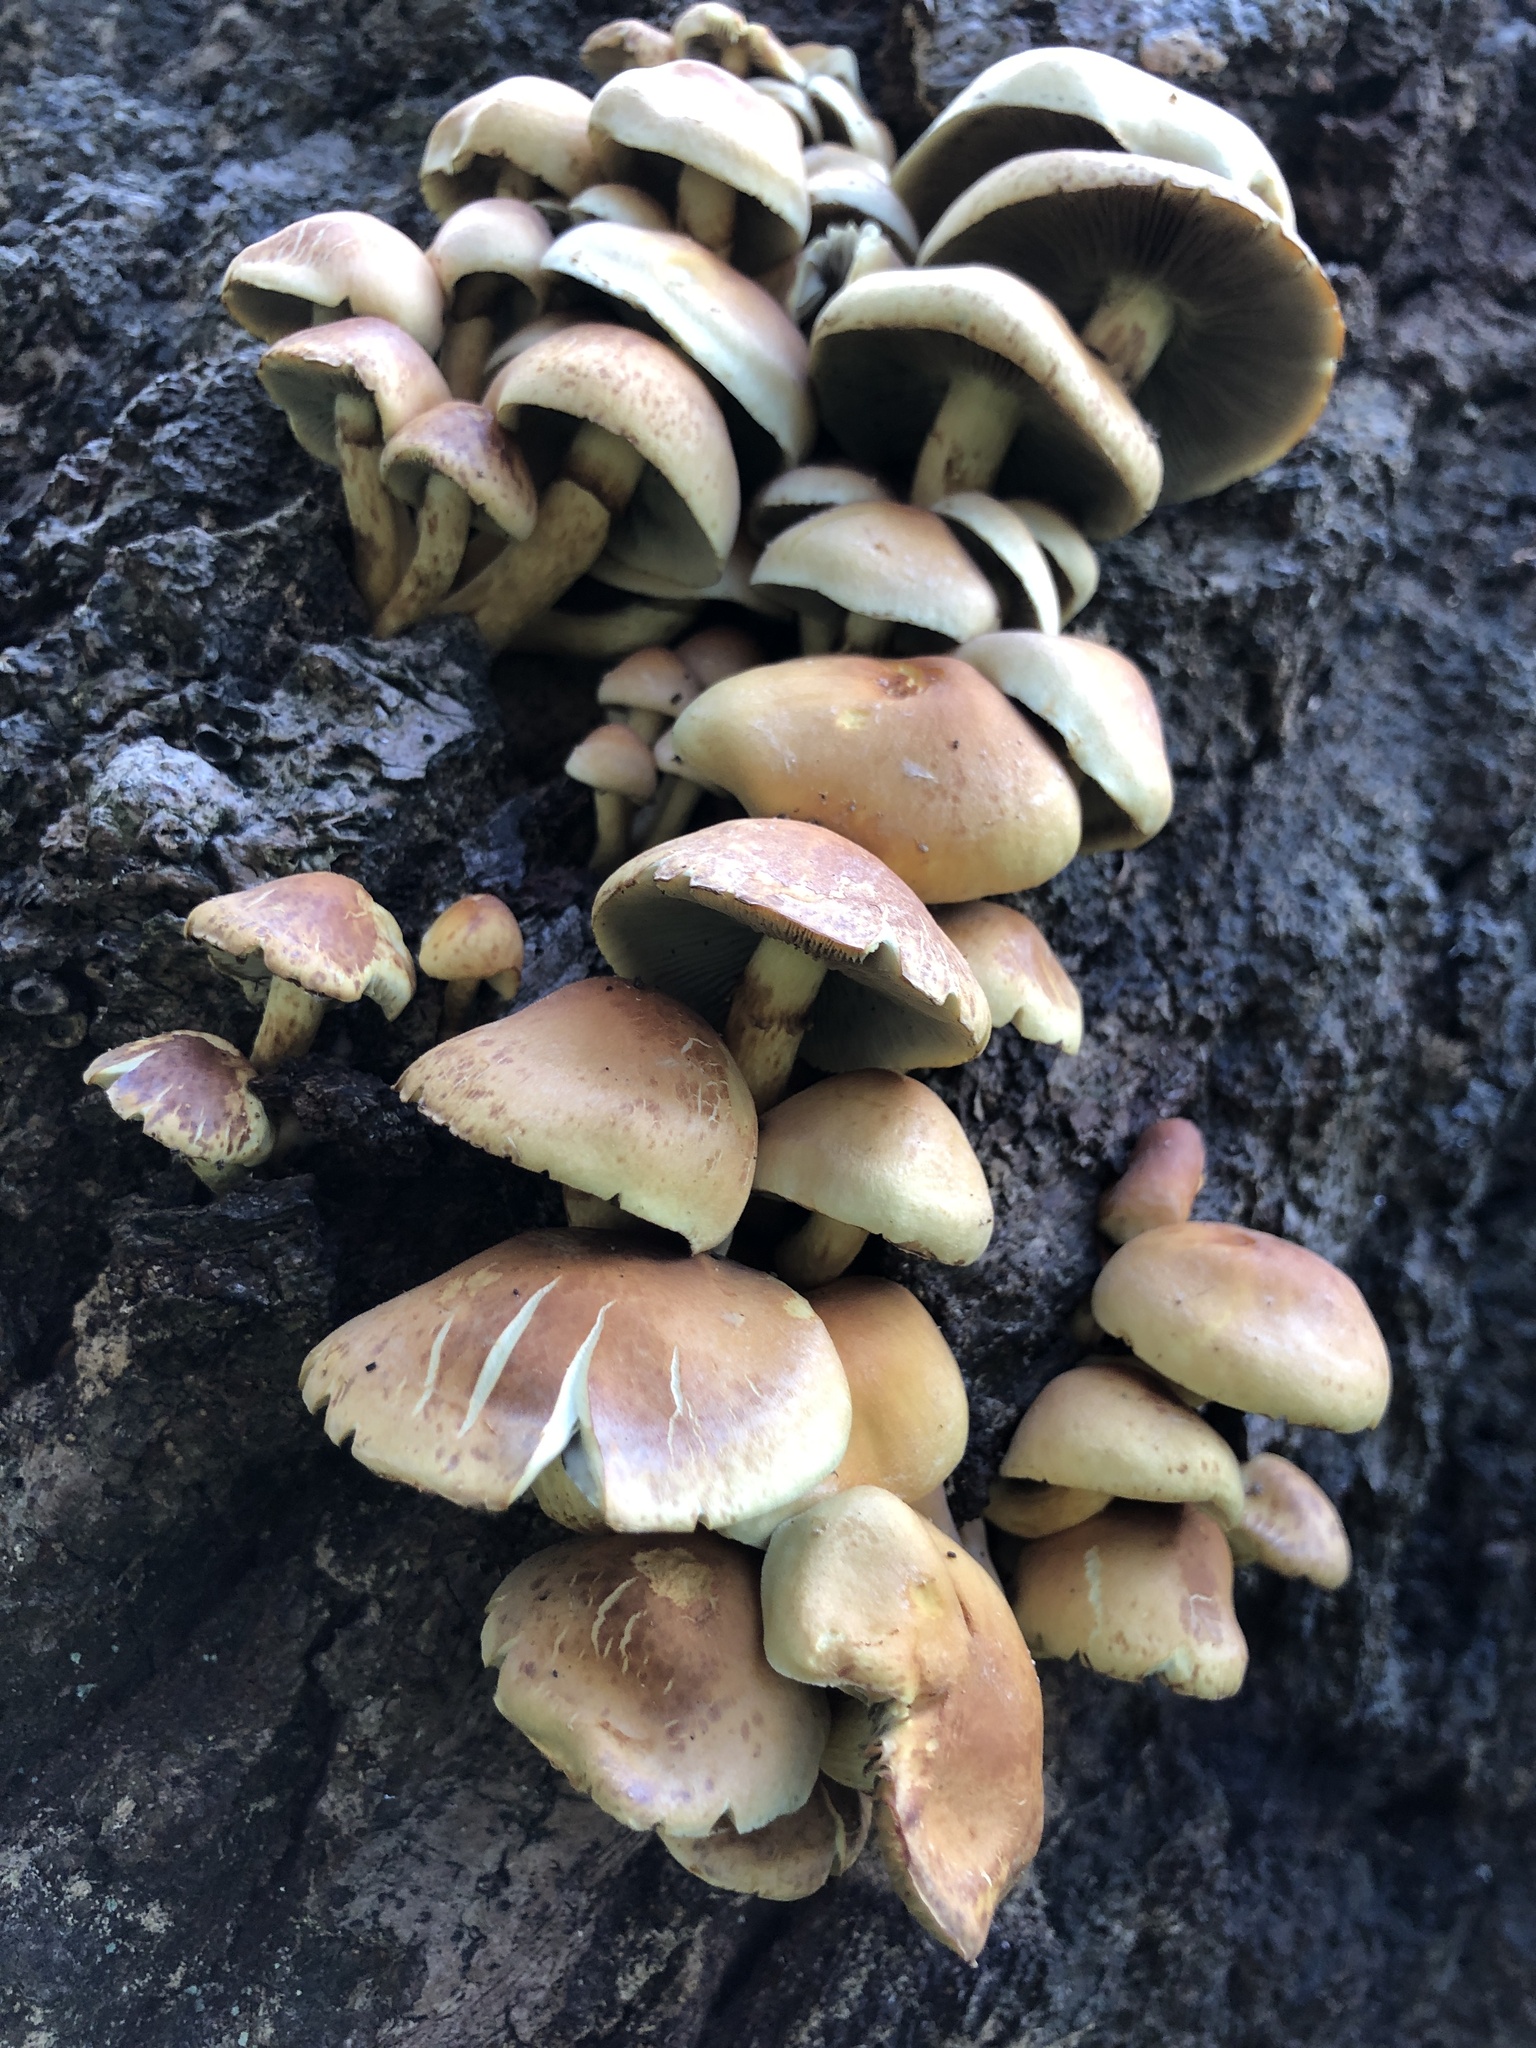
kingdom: Fungi
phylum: Basidiomycota
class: Agaricomycetes
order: Agaricales
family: Strophariaceae
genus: Hypholoma
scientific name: Hypholoma fasciculare
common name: Sulphur tuft
